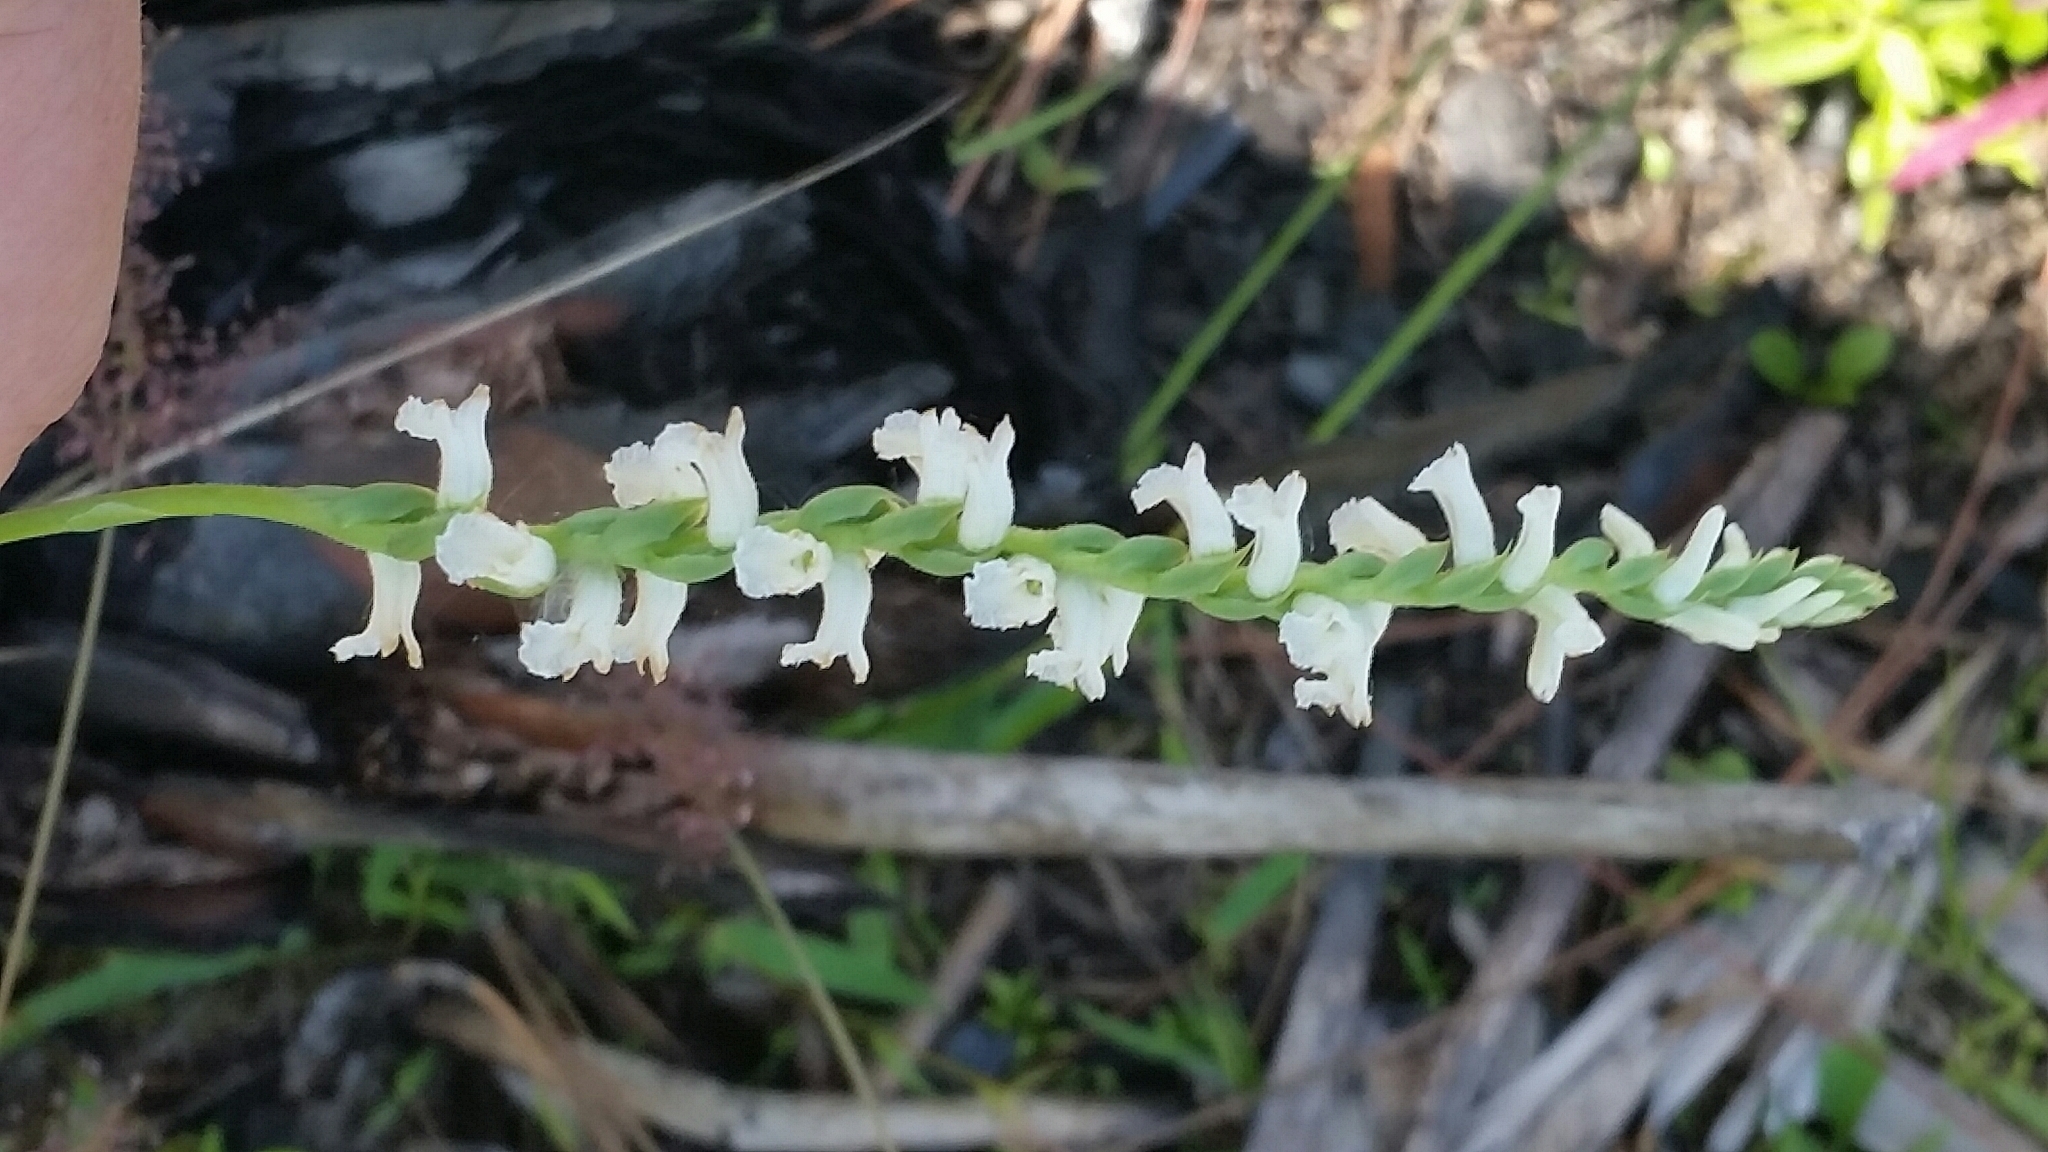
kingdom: Plantae
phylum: Tracheophyta
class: Liliopsida
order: Asparagales
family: Orchidaceae
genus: Spiranthes
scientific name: Spiranthes praecox
